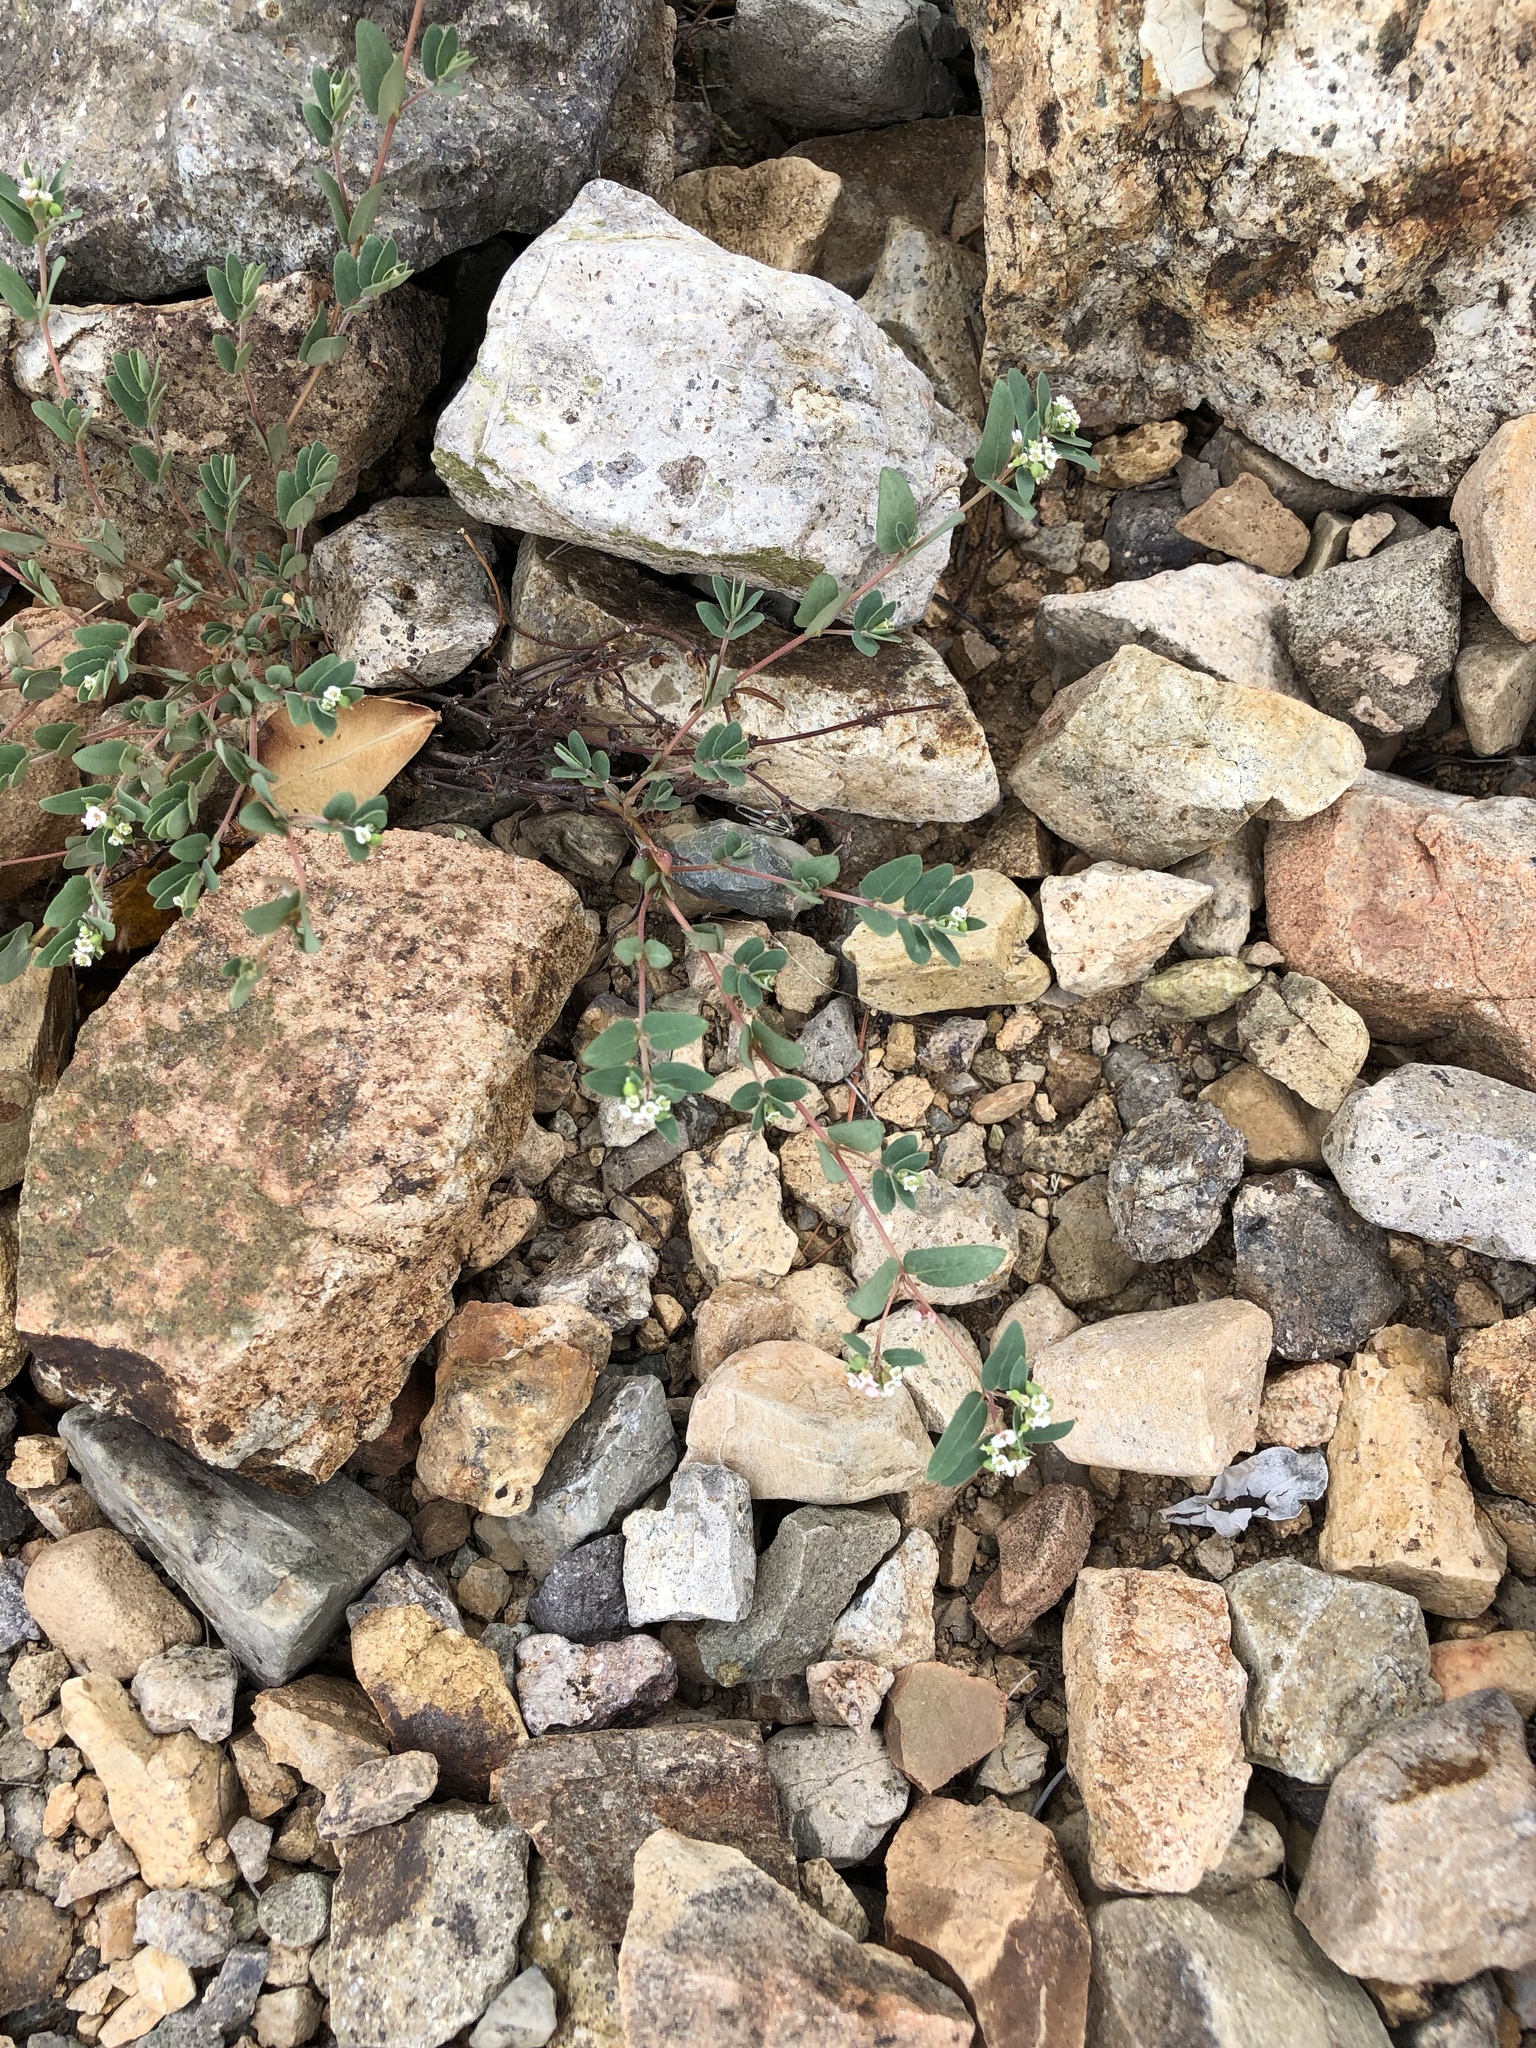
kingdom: Plantae
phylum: Tracheophyta
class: Magnoliopsida
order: Malpighiales
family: Euphorbiaceae
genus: Euphorbia
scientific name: Euphorbia capitellata
